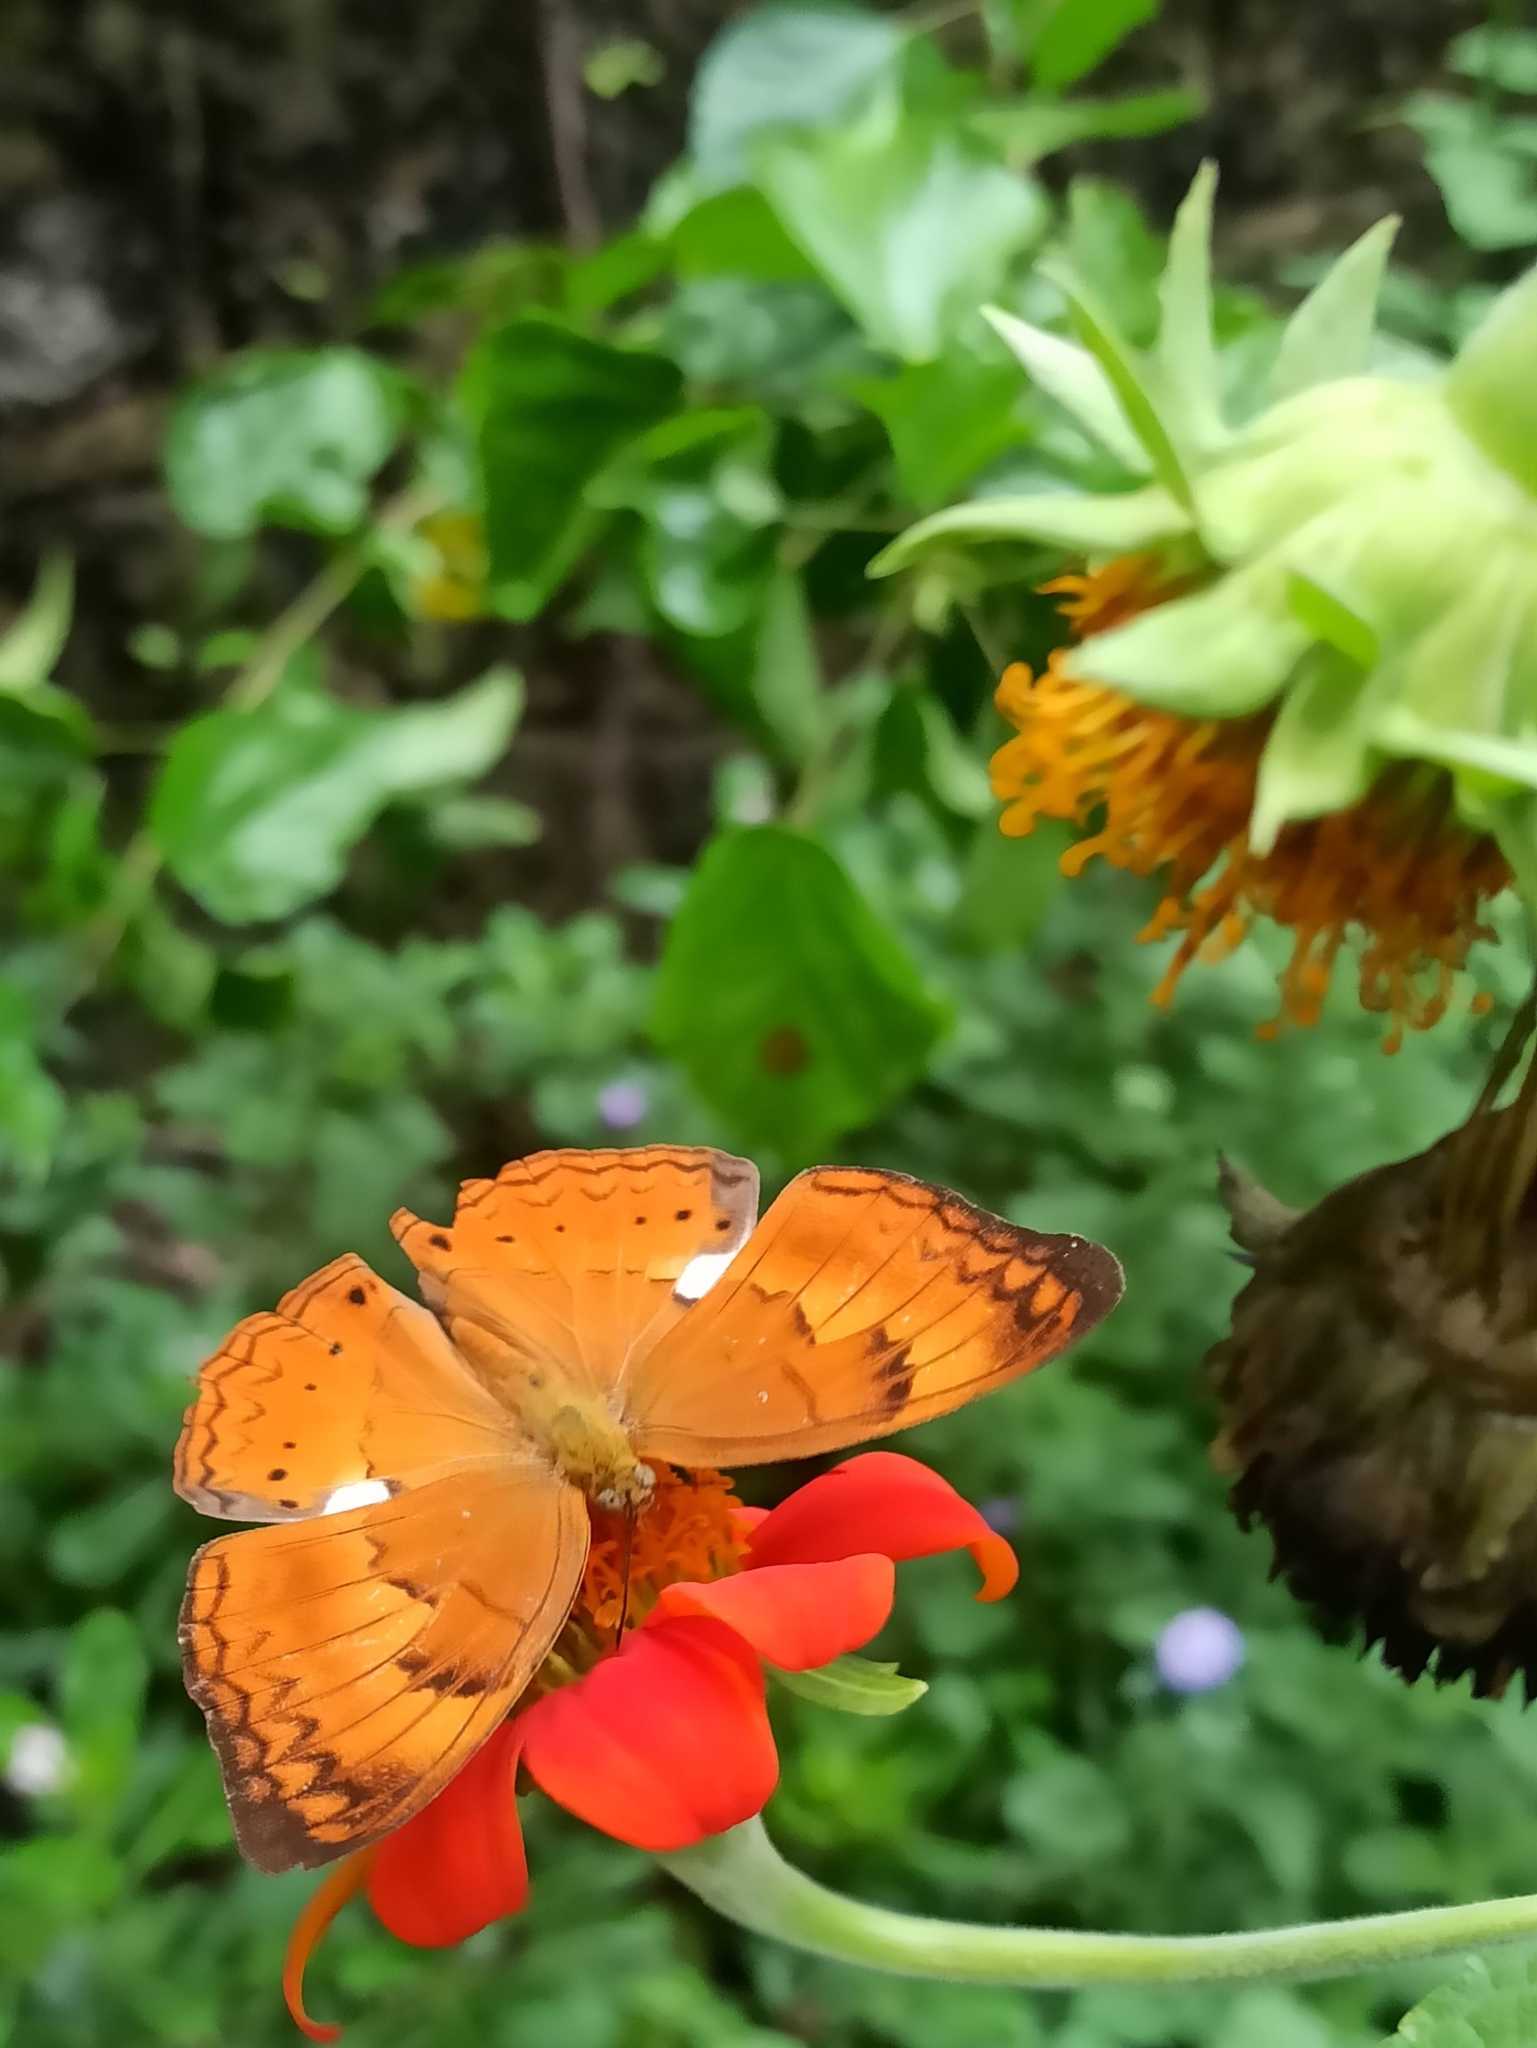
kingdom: Animalia
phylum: Arthropoda
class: Insecta
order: Lepidoptera
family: Nymphalidae
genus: Cirrochroa
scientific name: Cirrochroa thais
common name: Tamil yeoman
